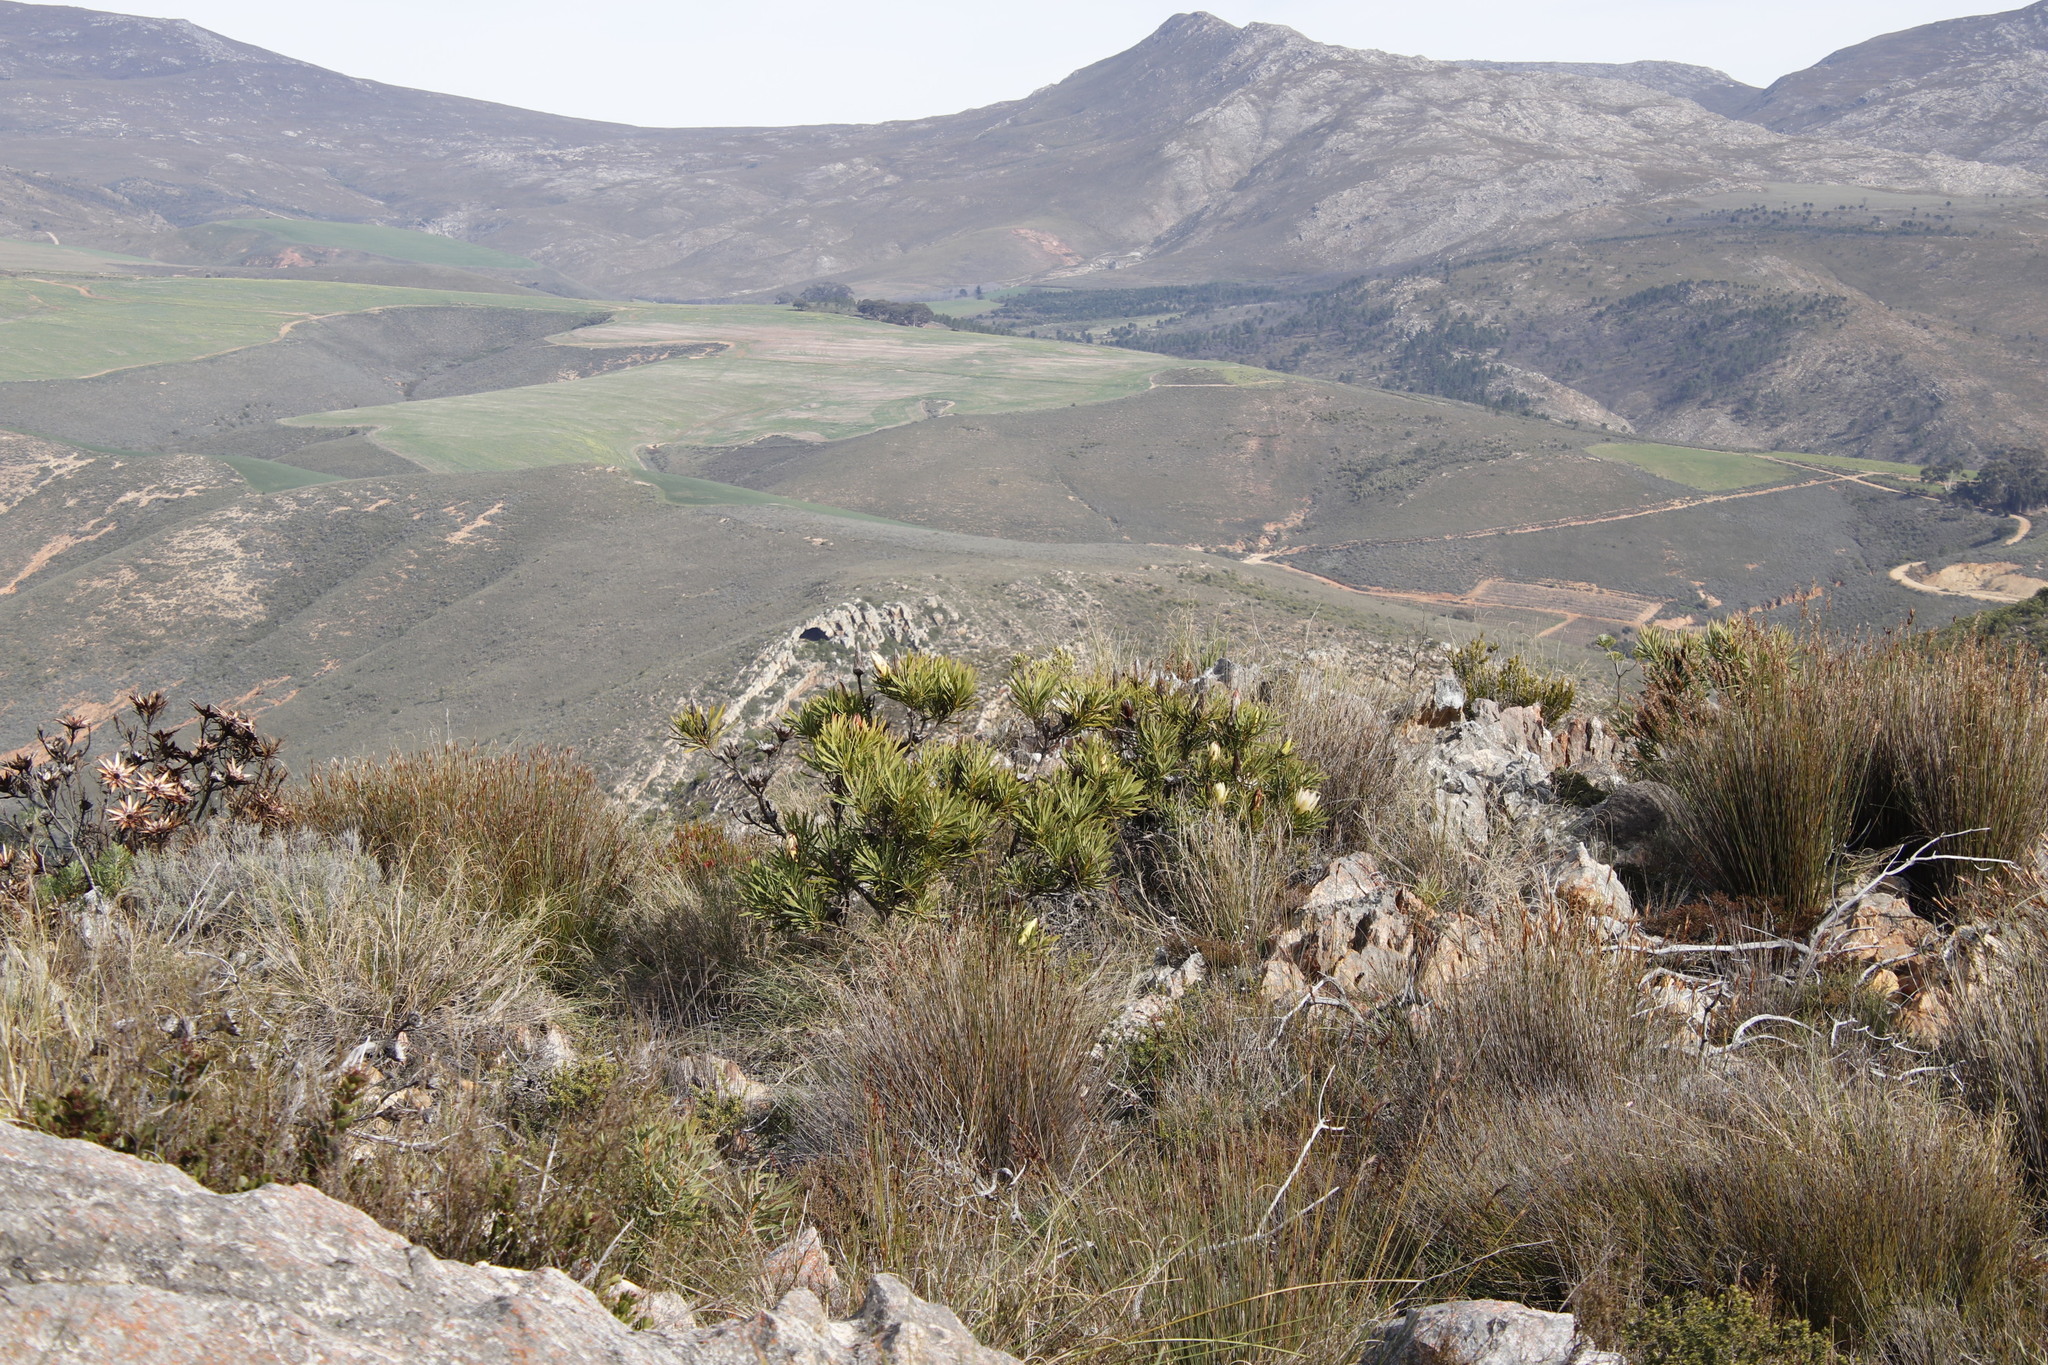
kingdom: Plantae
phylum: Tracheophyta
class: Magnoliopsida
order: Proteales
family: Proteaceae
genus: Protea
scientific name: Protea repens
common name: Sugarbush
